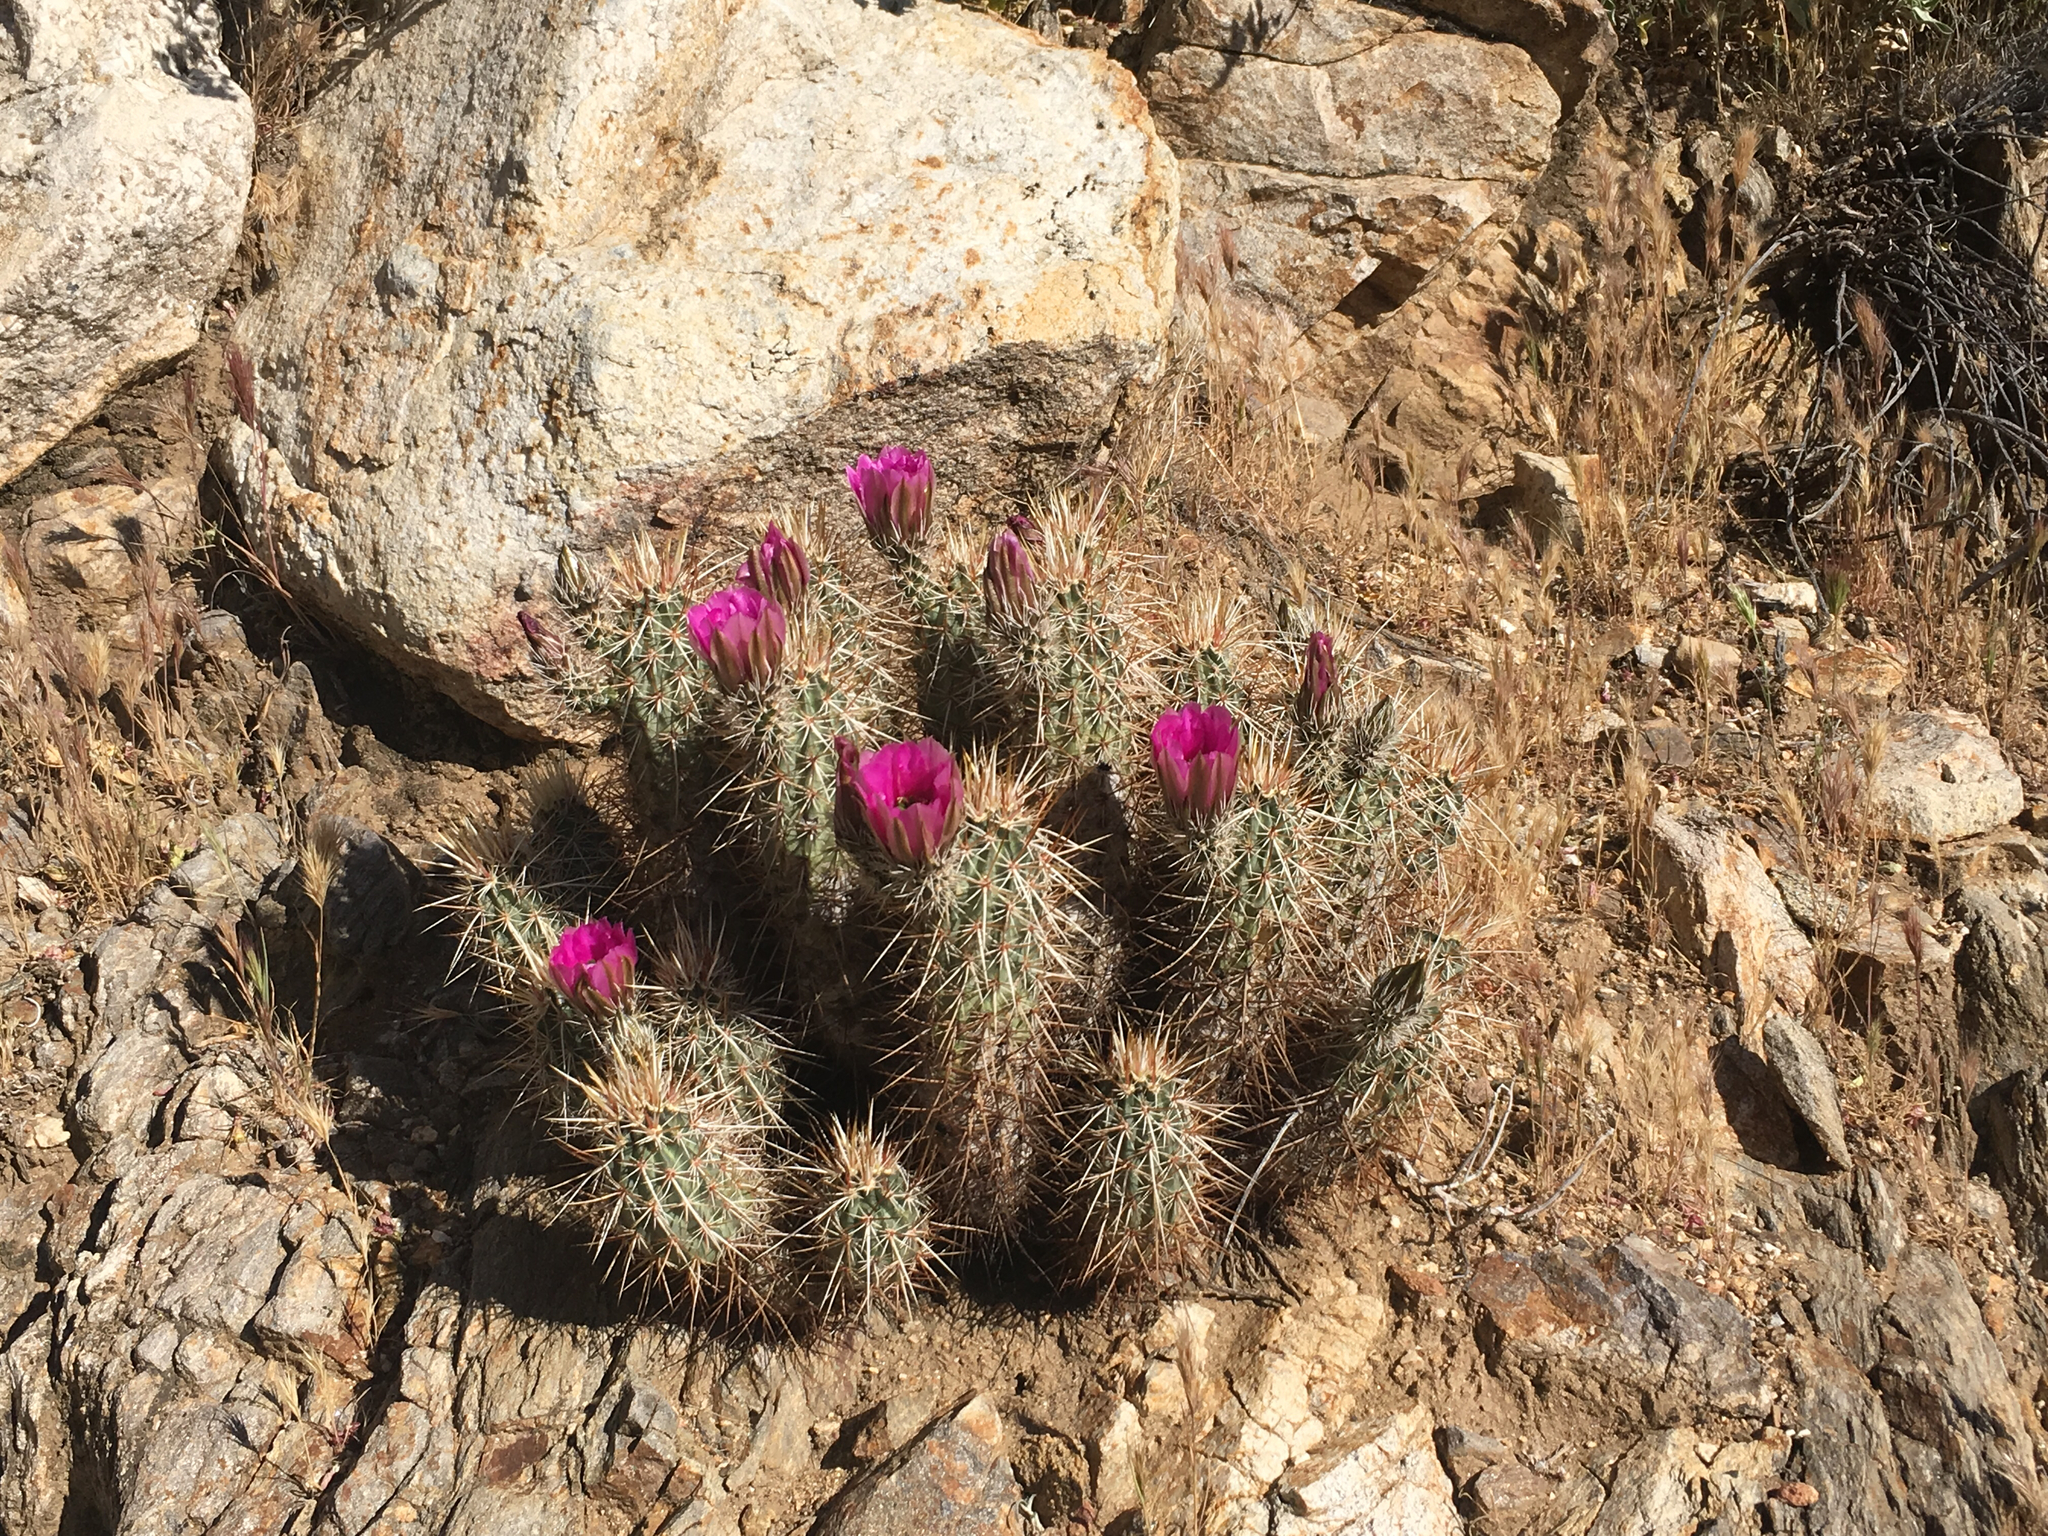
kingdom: Plantae
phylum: Tracheophyta
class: Magnoliopsida
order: Caryophyllales
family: Cactaceae
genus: Echinocereus
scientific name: Echinocereus engelmannii
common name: Engelmann's hedgehog cactus
